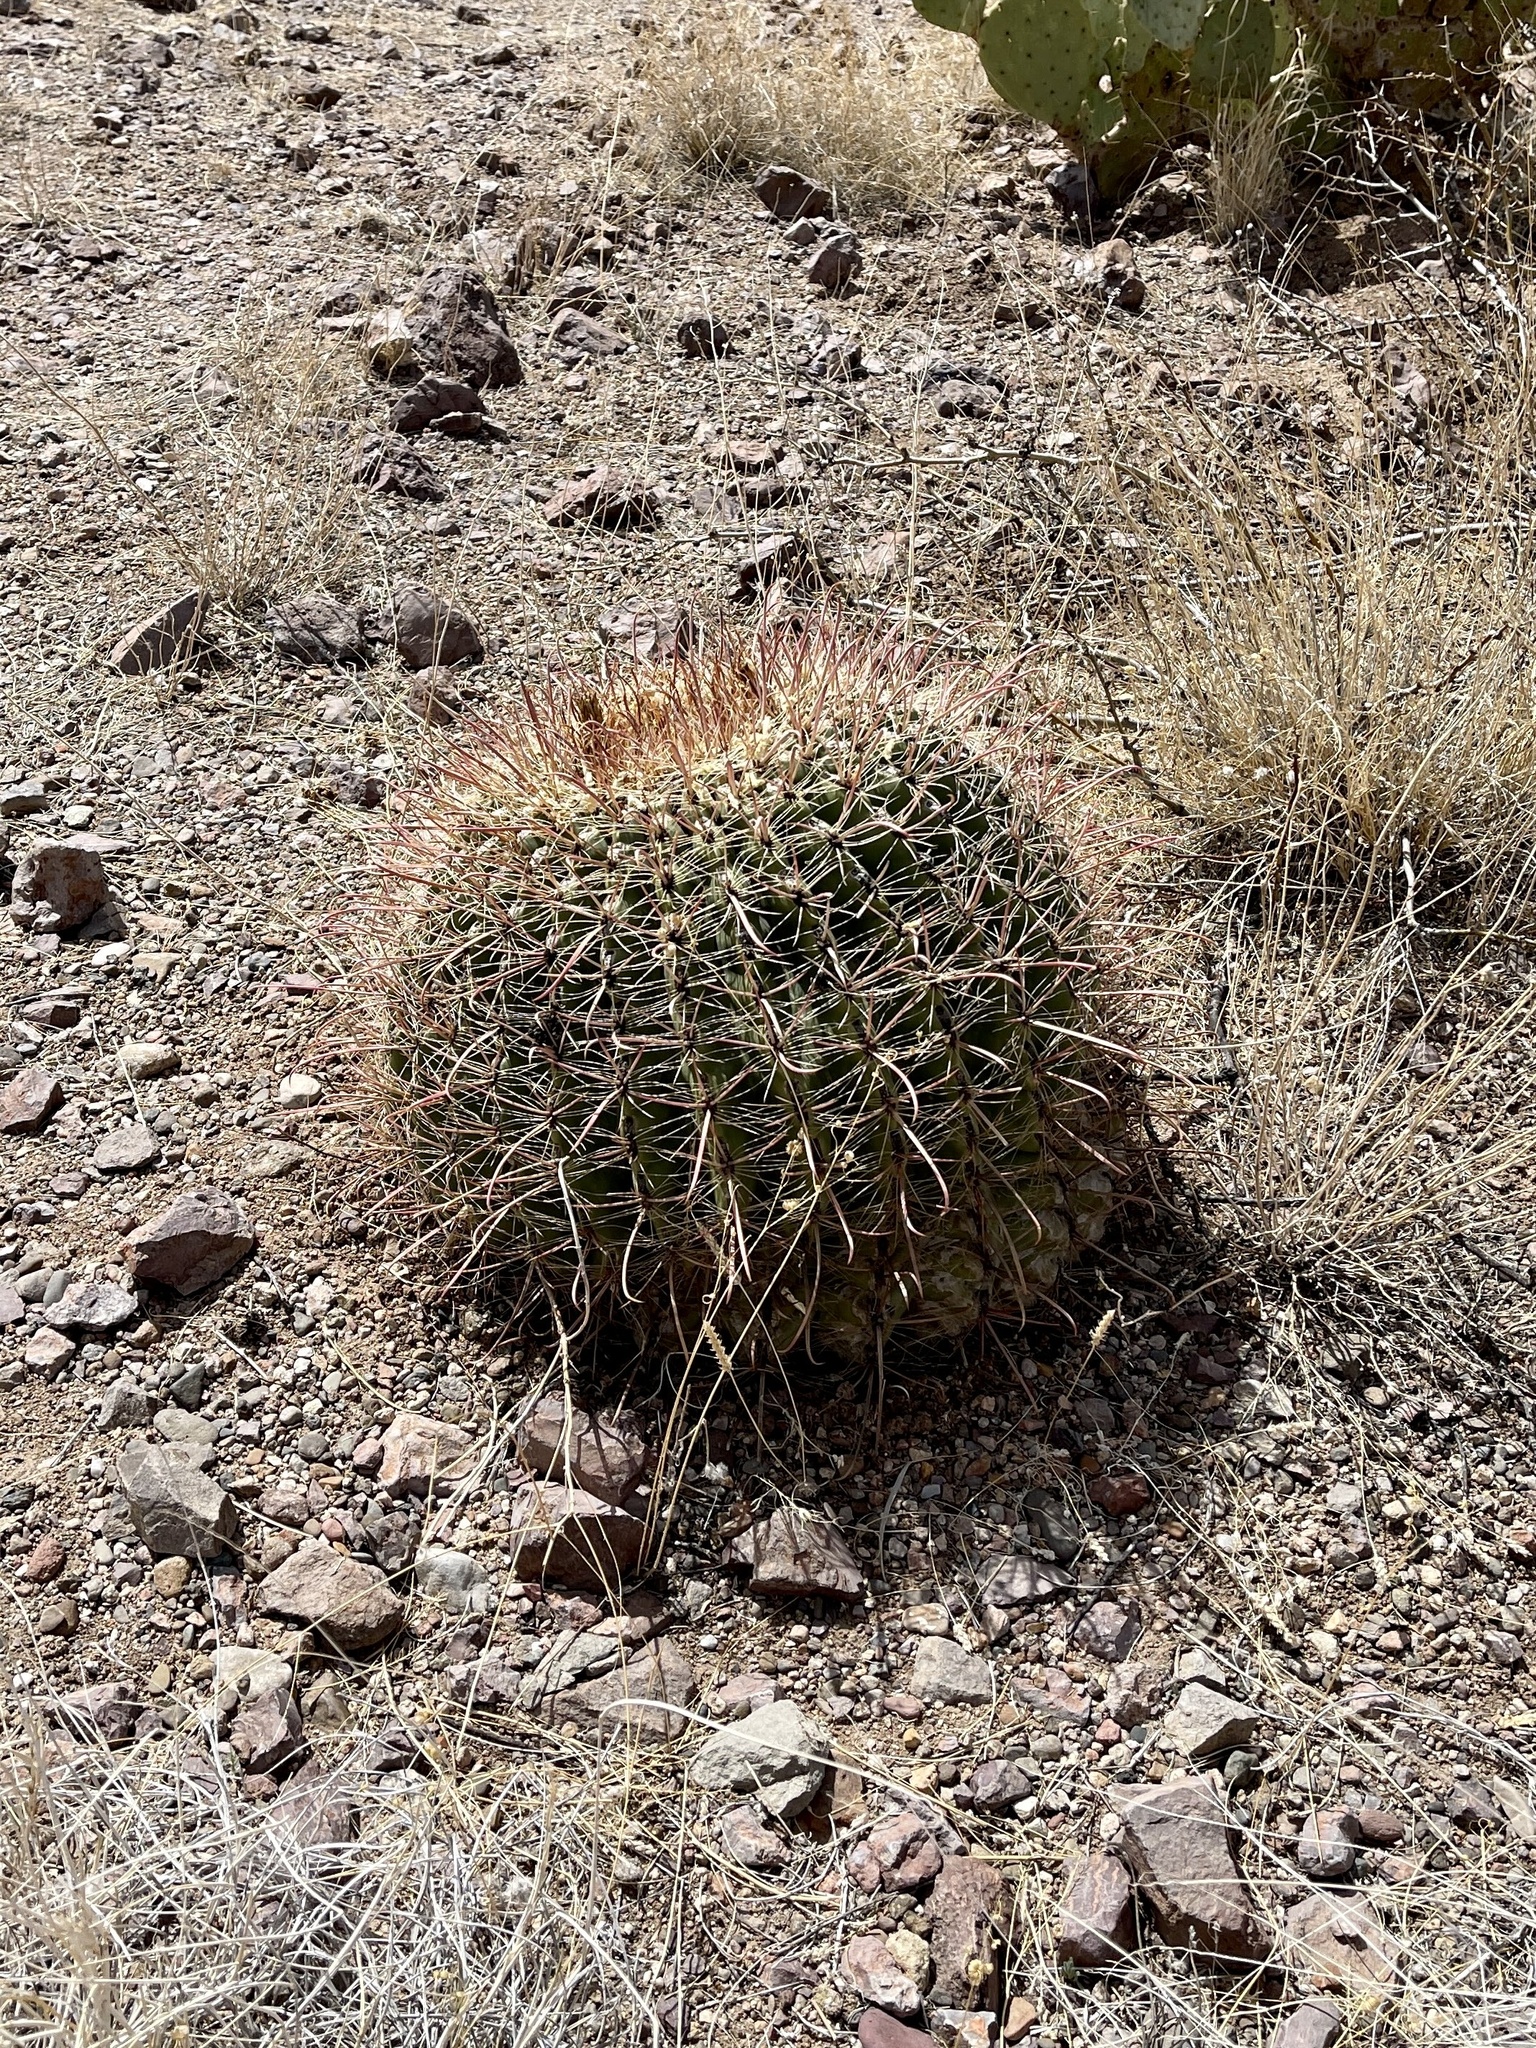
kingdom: Plantae
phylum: Tracheophyta
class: Magnoliopsida
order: Caryophyllales
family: Cactaceae
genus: Ferocactus
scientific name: Ferocactus wislizeni
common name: Candy barrel cactus
